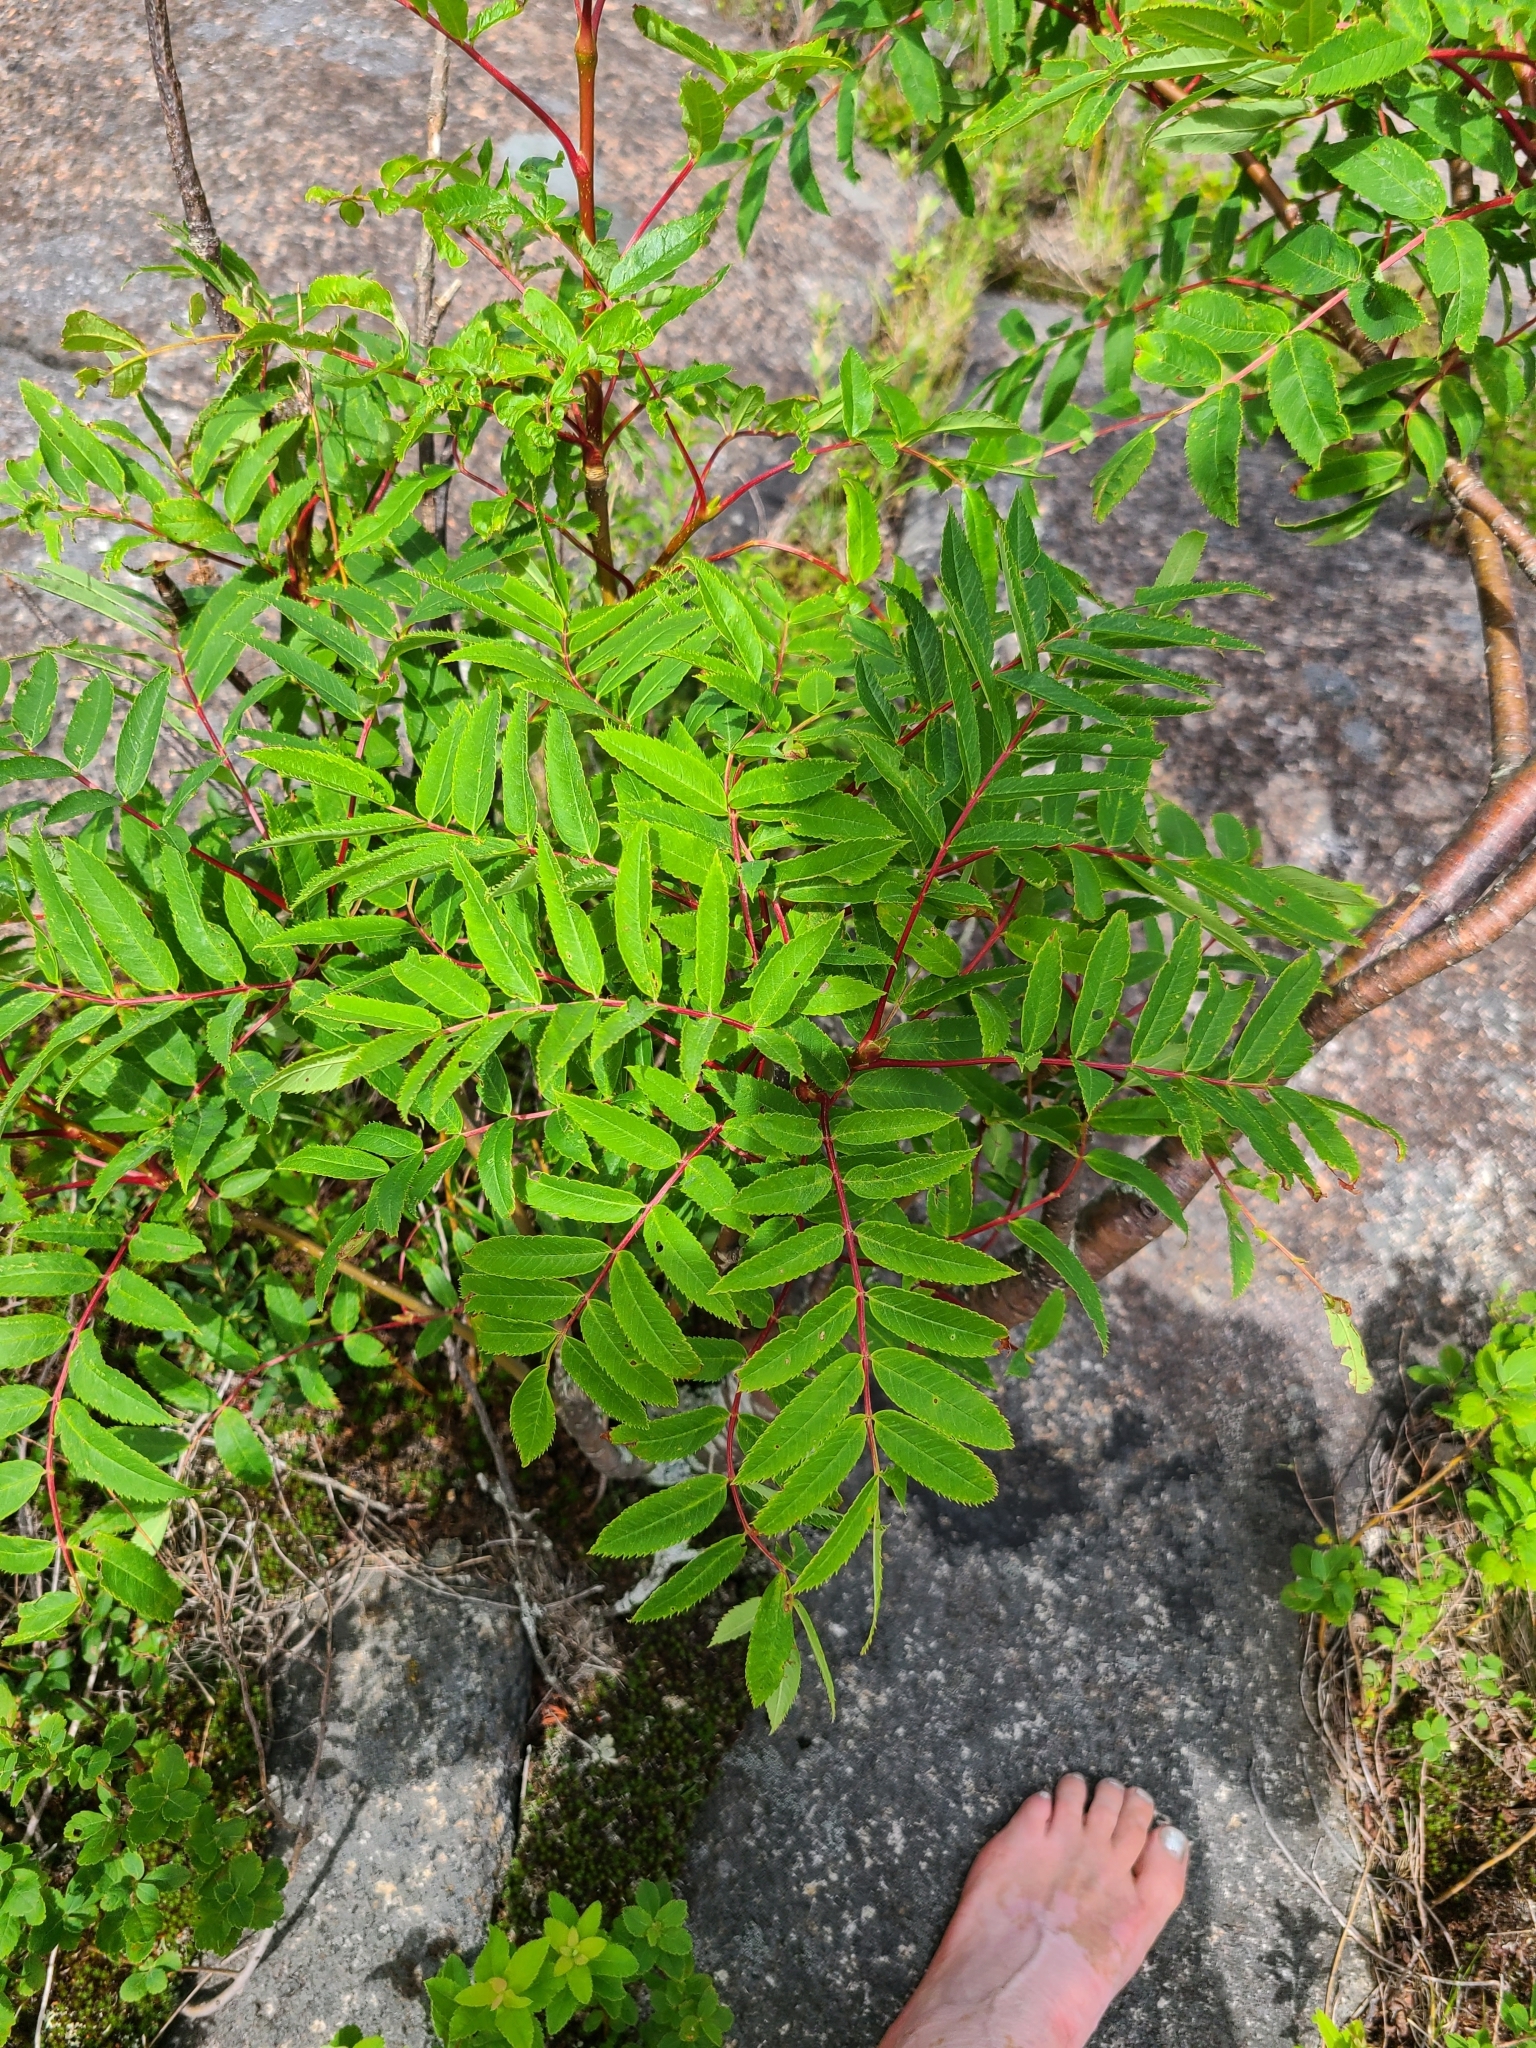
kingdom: Plantae
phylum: Tracheophyta
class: Magnoliopsida
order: Rosales
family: Rosaceae
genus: Sorbus
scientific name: Sorbus aucuparia
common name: Rowan
